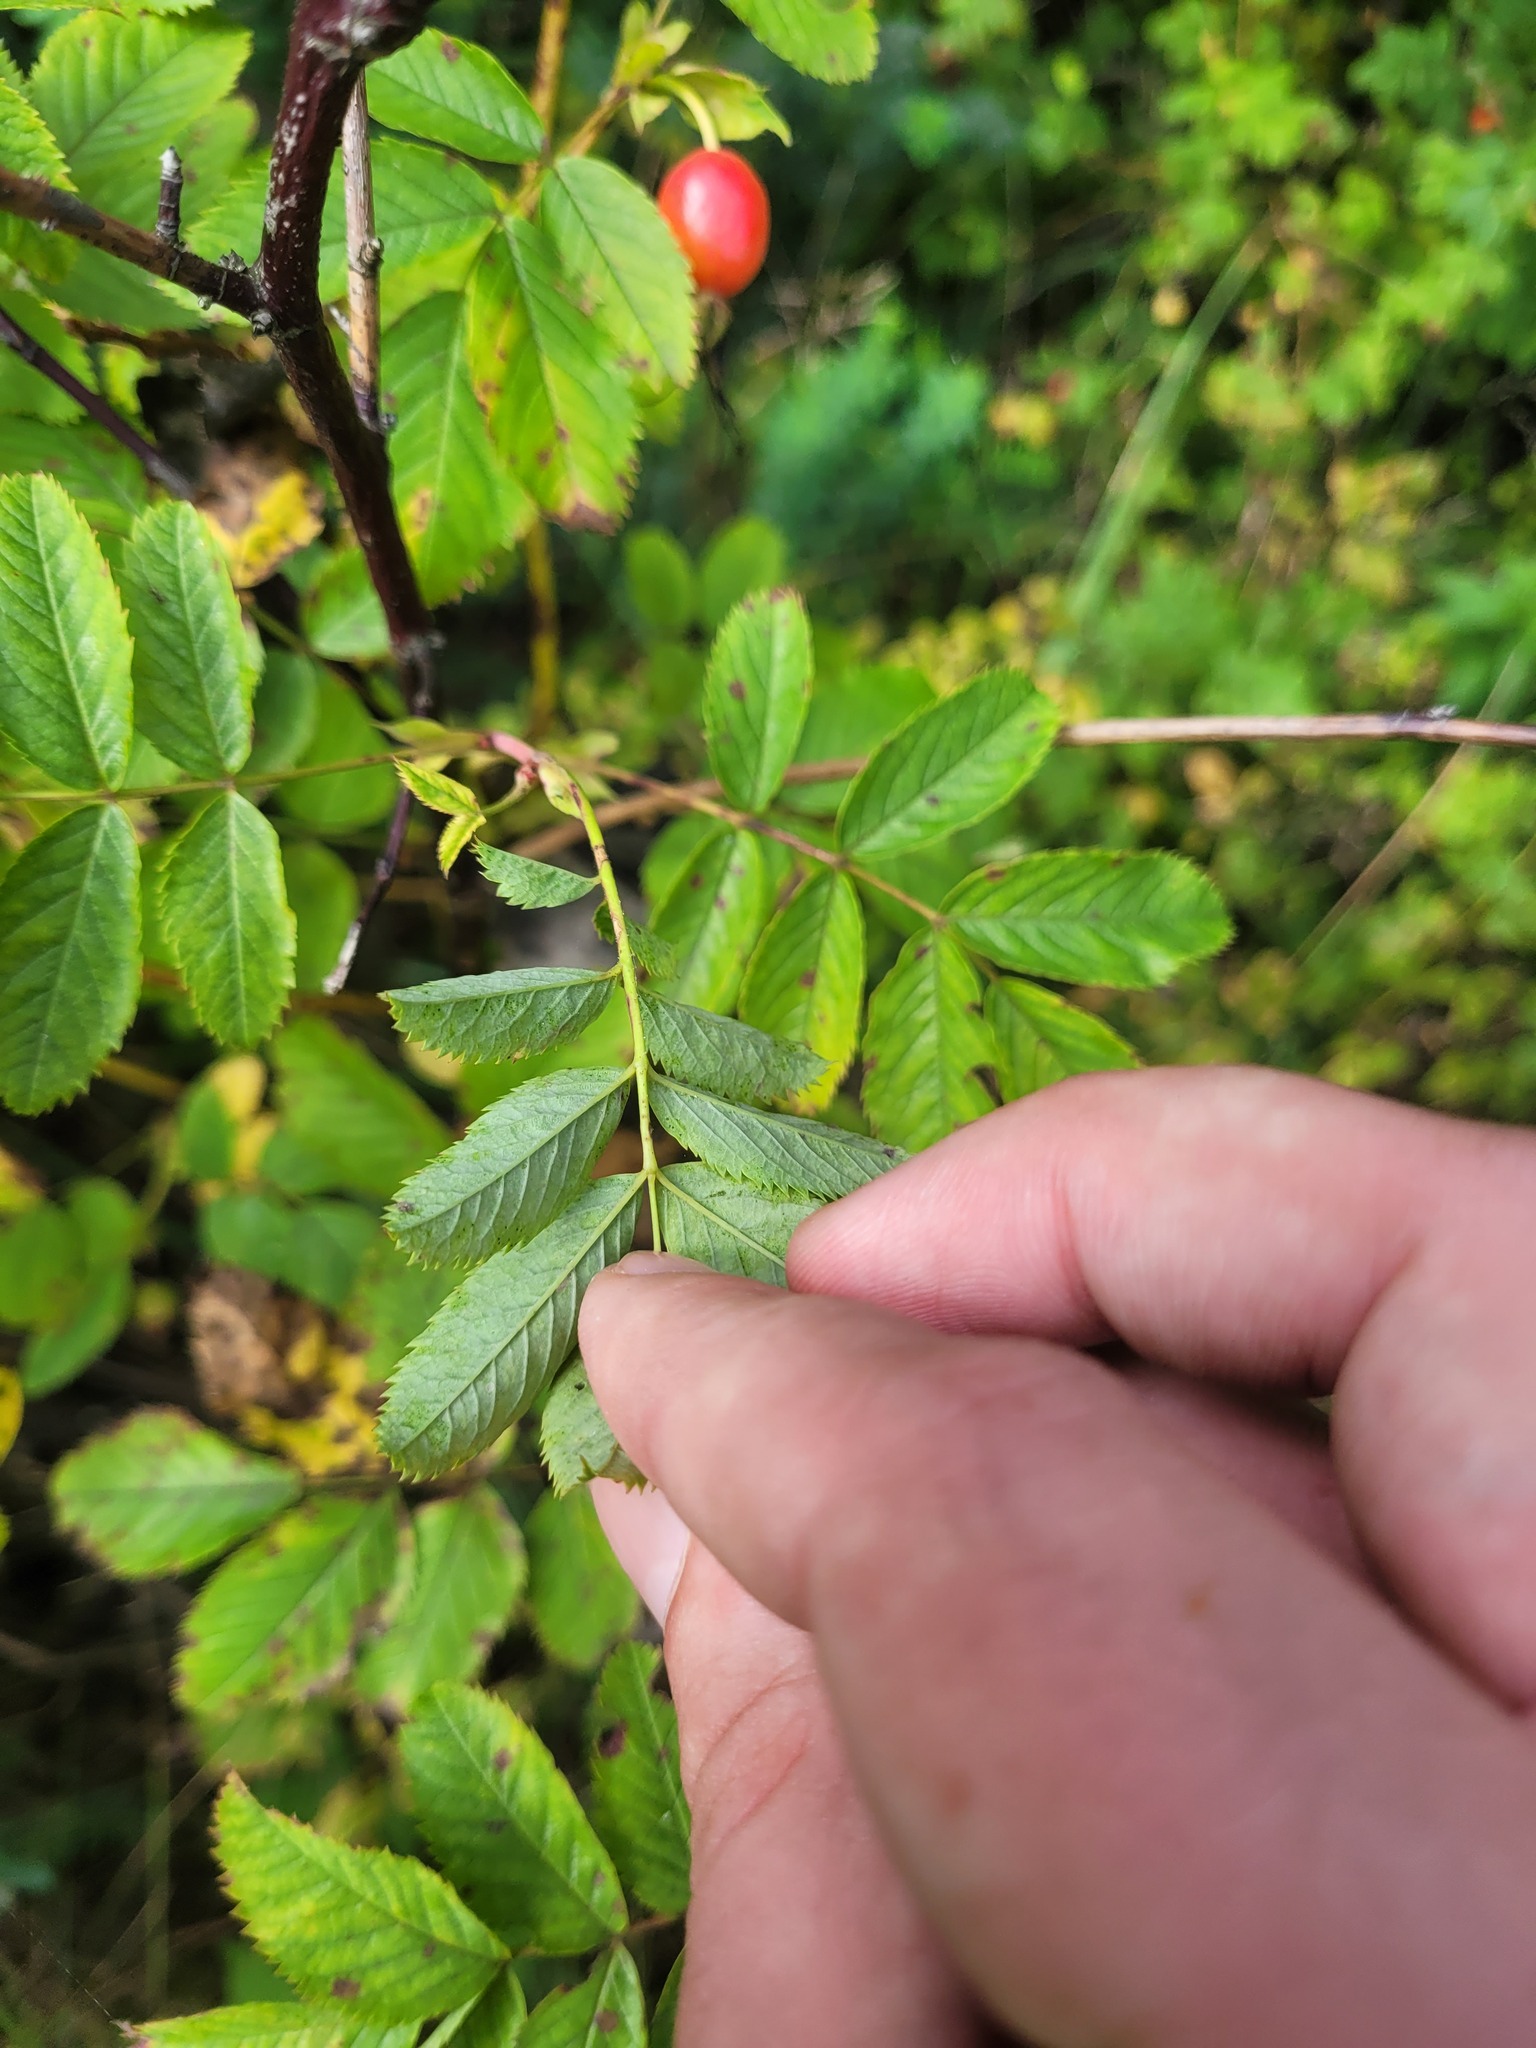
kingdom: Plantae
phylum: Tracheophyta
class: Magnoliopsida
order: Rosales
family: Rosaceae
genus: Rosa
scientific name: Rosa majalis
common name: Cinnamon rose
